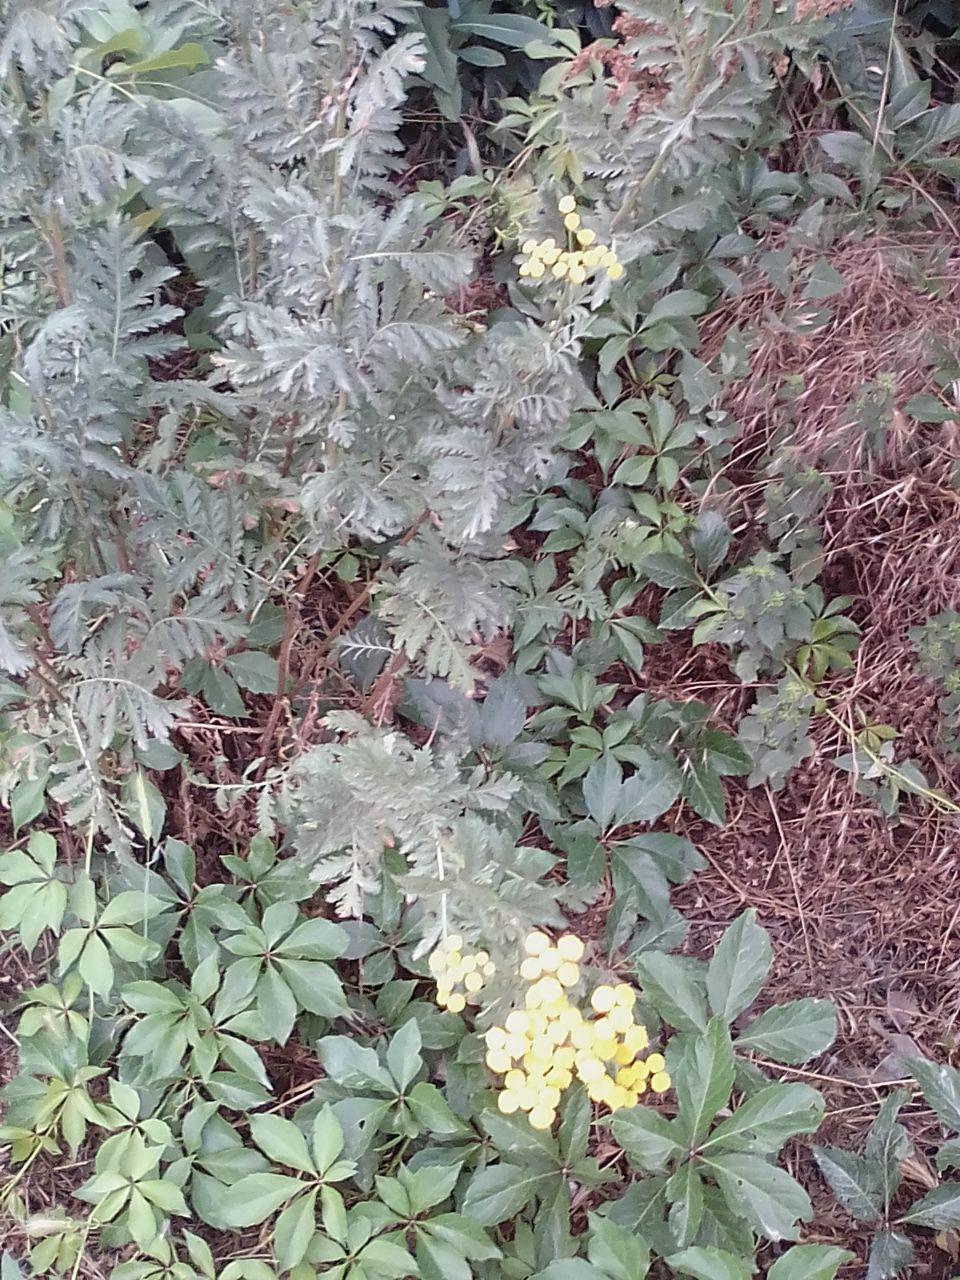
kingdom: Plantae
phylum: Tracheophyta
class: Magnoliopsida
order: Asterales
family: Asteraceae
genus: Tanacetum
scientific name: Tanacetum vulgare
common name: Common tansy
